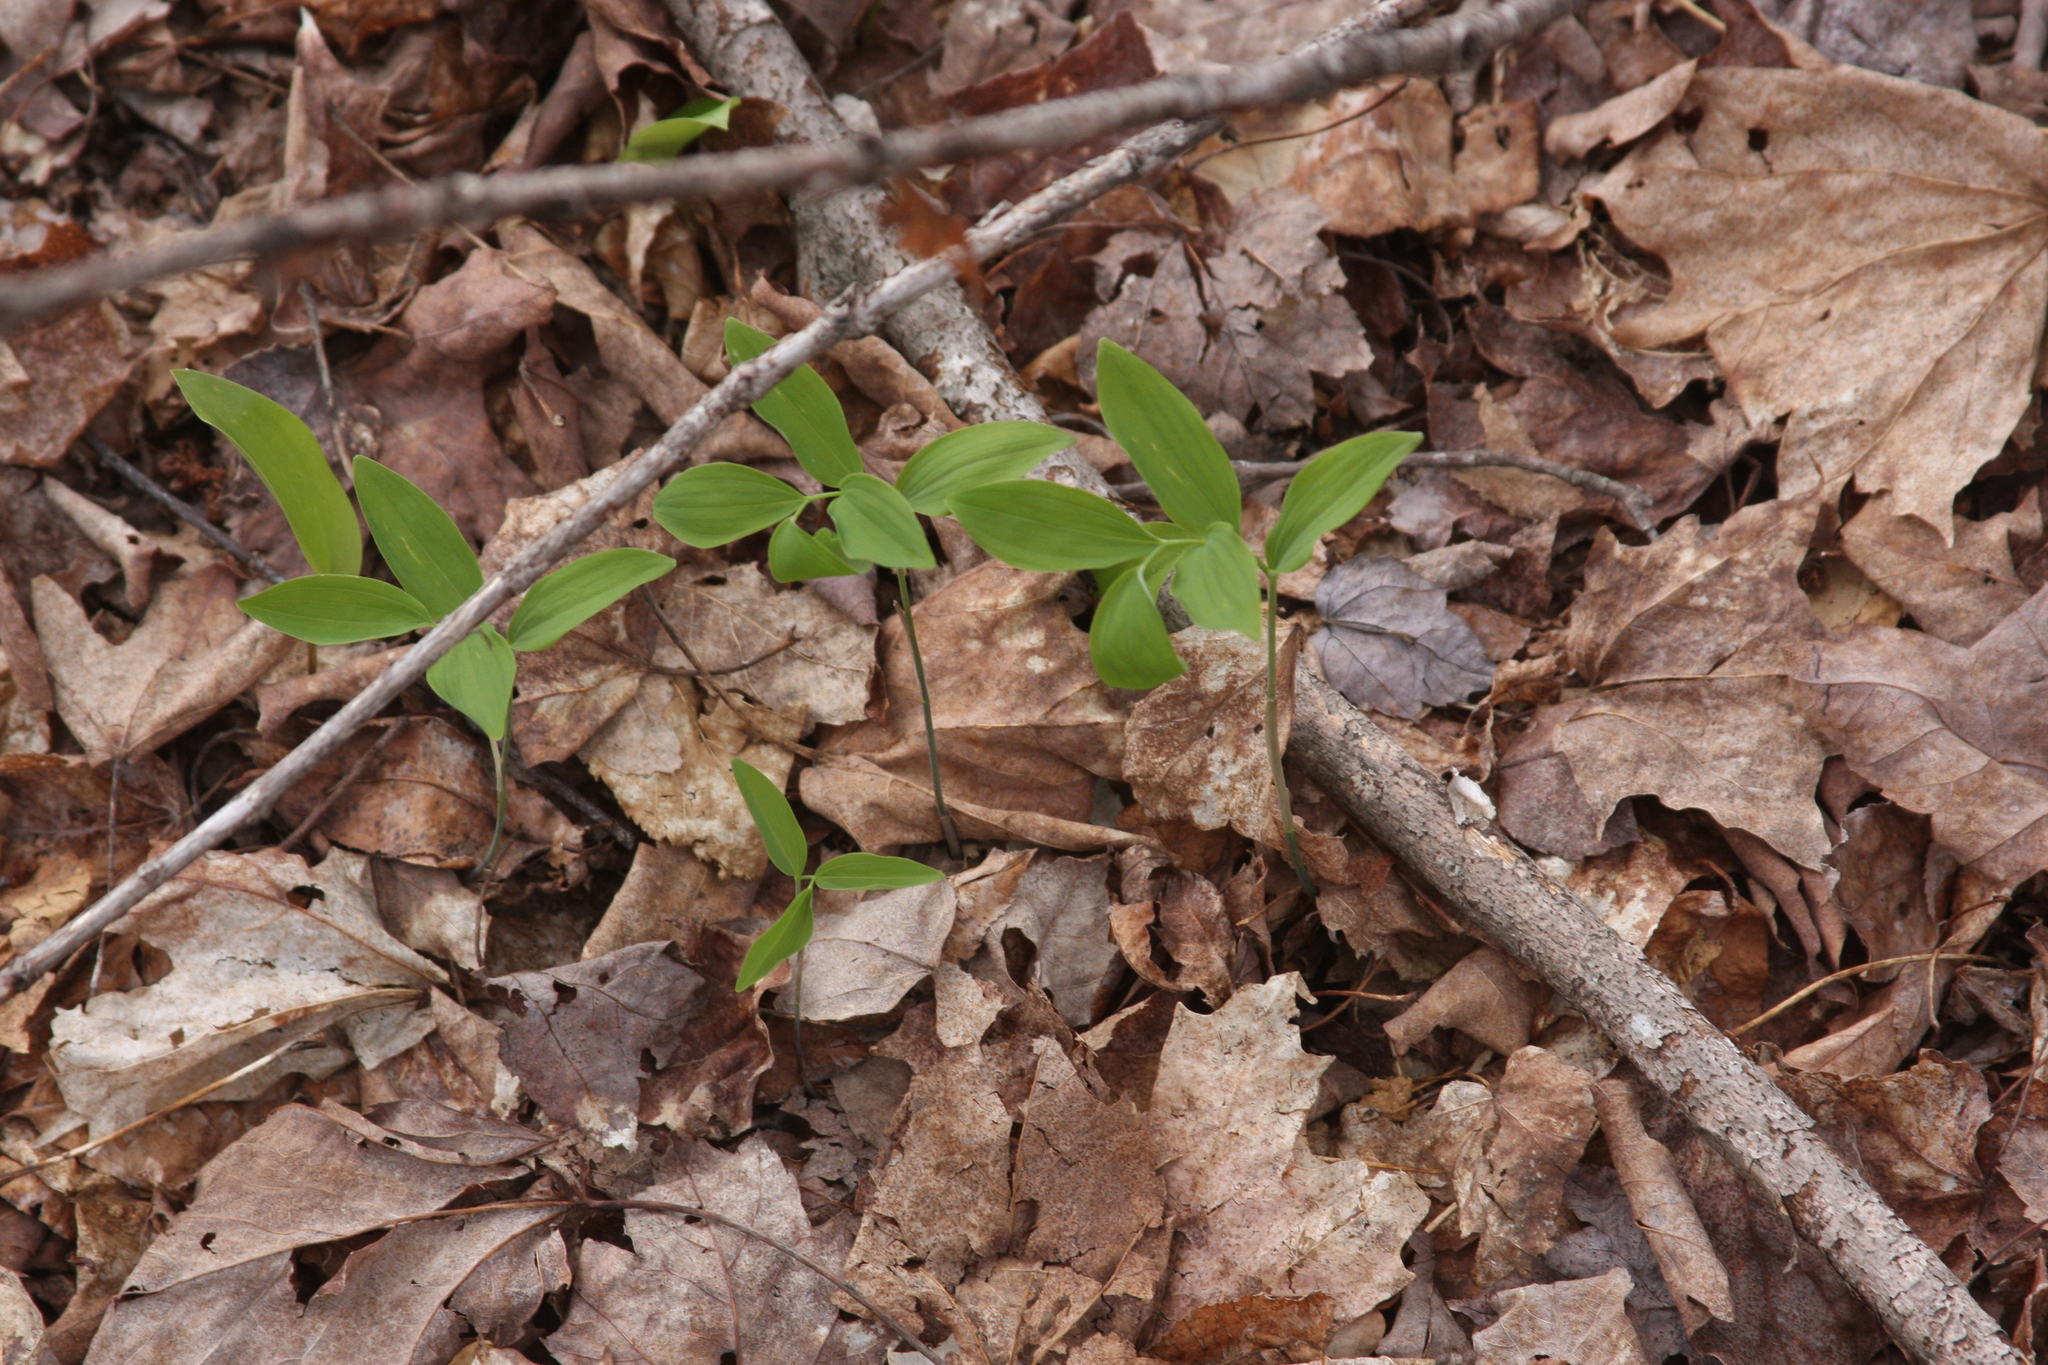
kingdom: Plantae
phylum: Tracheophyta
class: Liliopsida
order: Asparagales
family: Asparagaceae
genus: Polygonatum
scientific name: Polygonatum pubescens
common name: Downy solomon's seal
